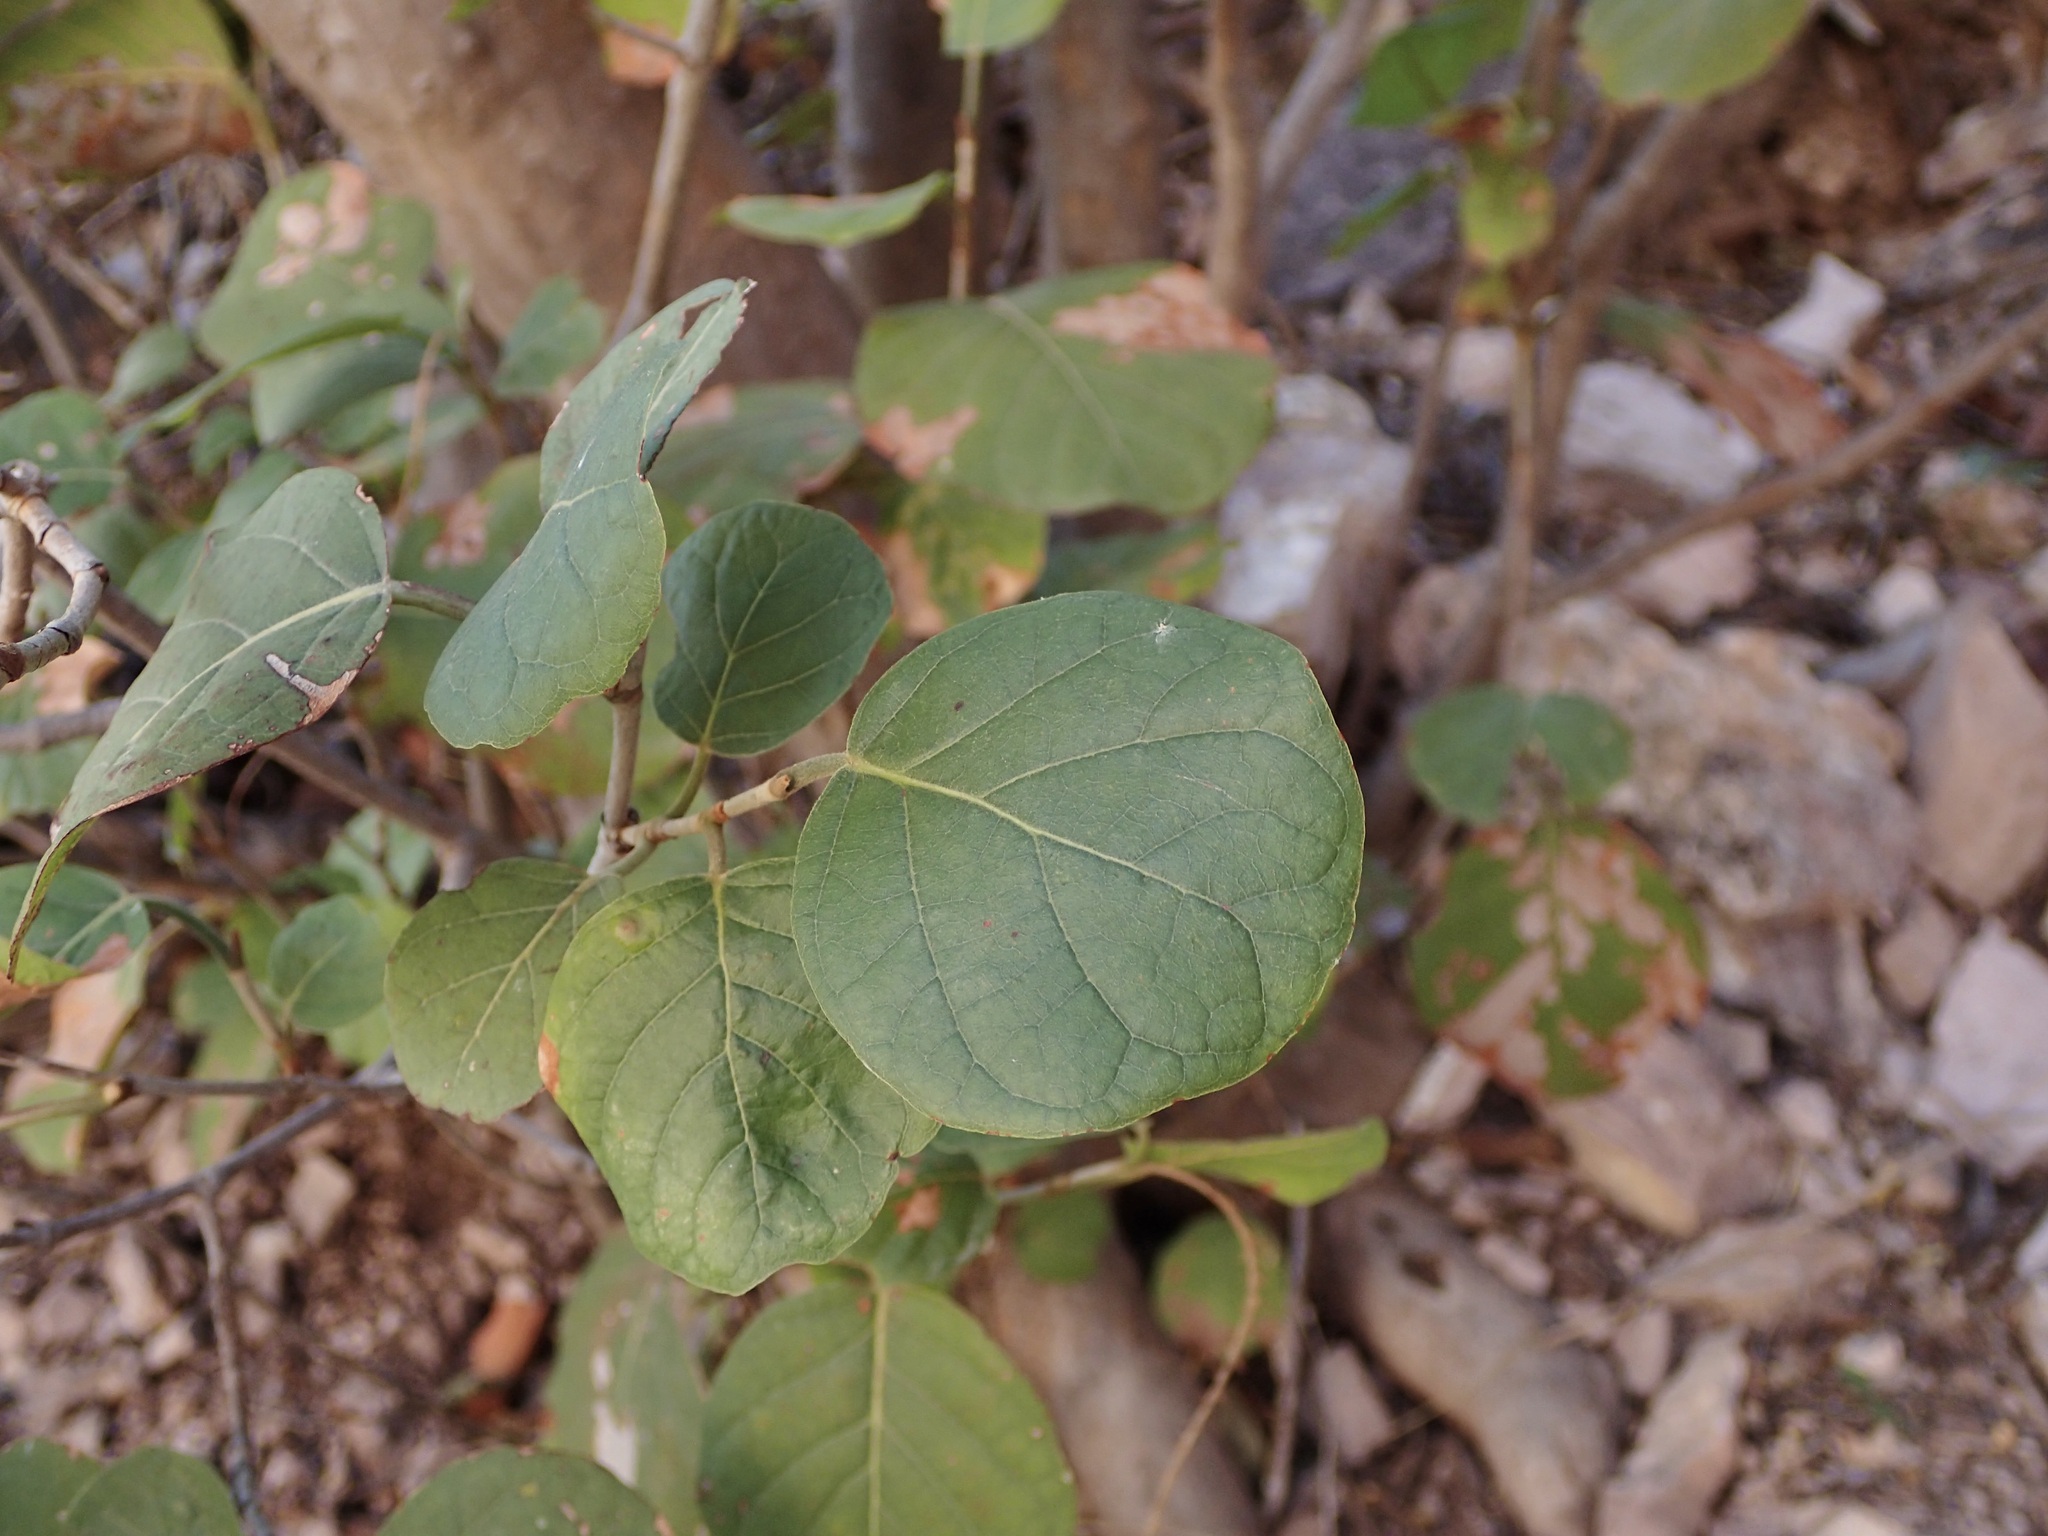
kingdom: Plantae
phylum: Tracheophyta
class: Magnoliopsida
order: Caryophyllales
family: Polygonaceae
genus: Coccoloba
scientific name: Coccoloba goldmanii
